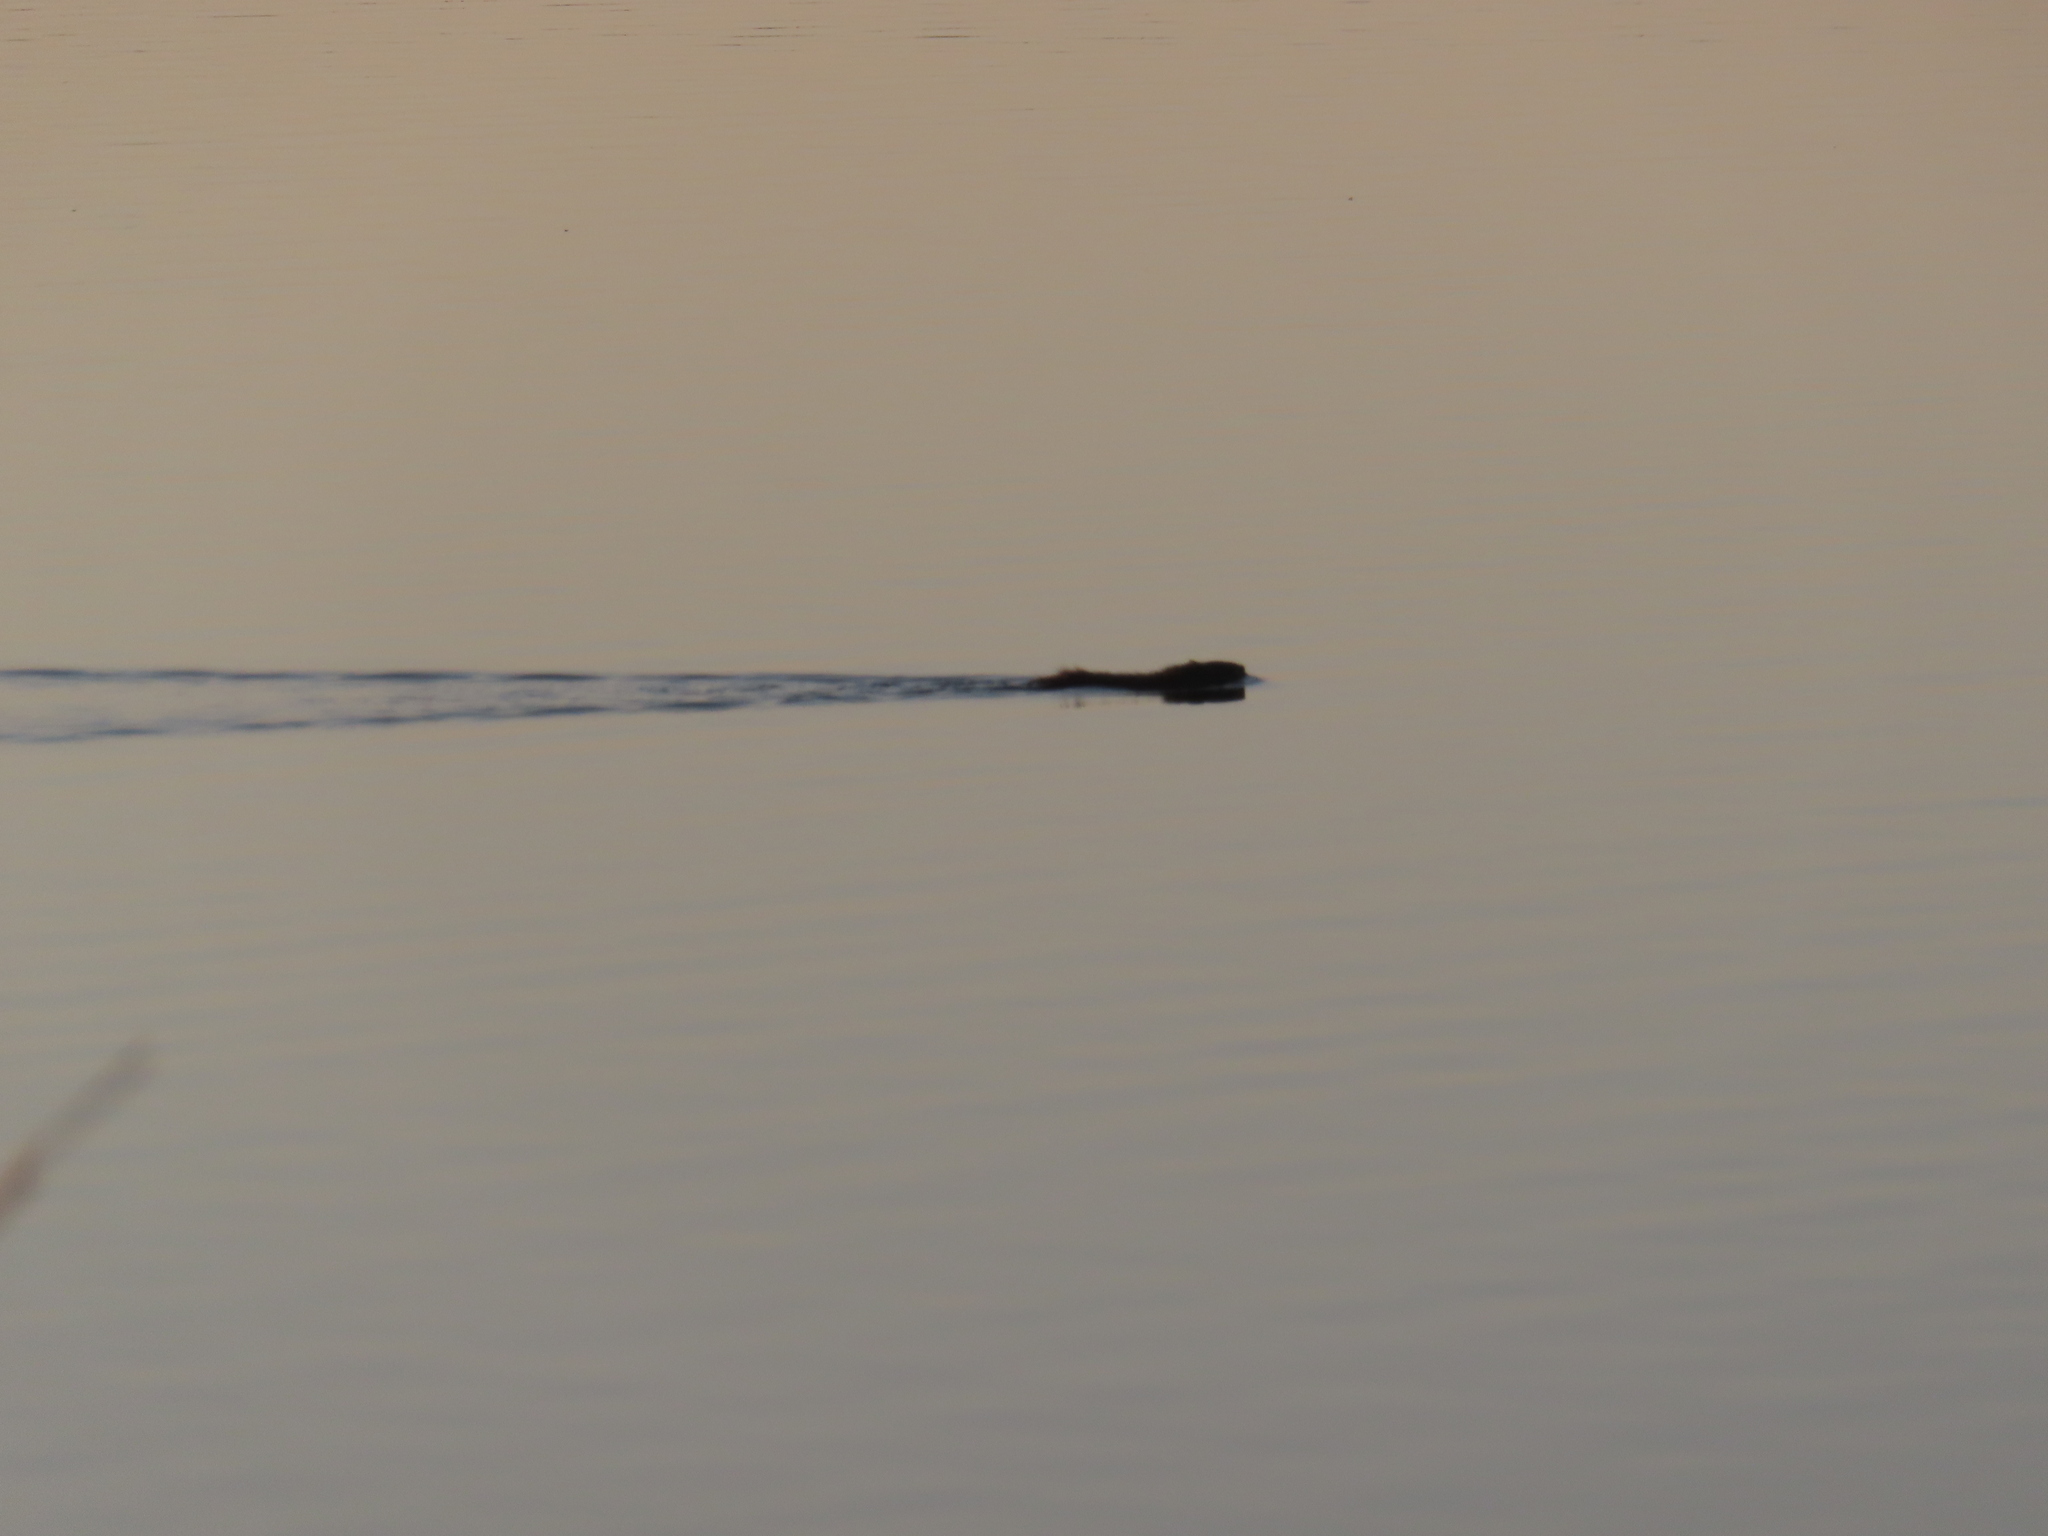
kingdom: Animalia
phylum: Chordata
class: Mammalia
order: Rodentia
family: Cricetidae
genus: Ondatra
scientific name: Ondatra zibethicus
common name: Muskrat
